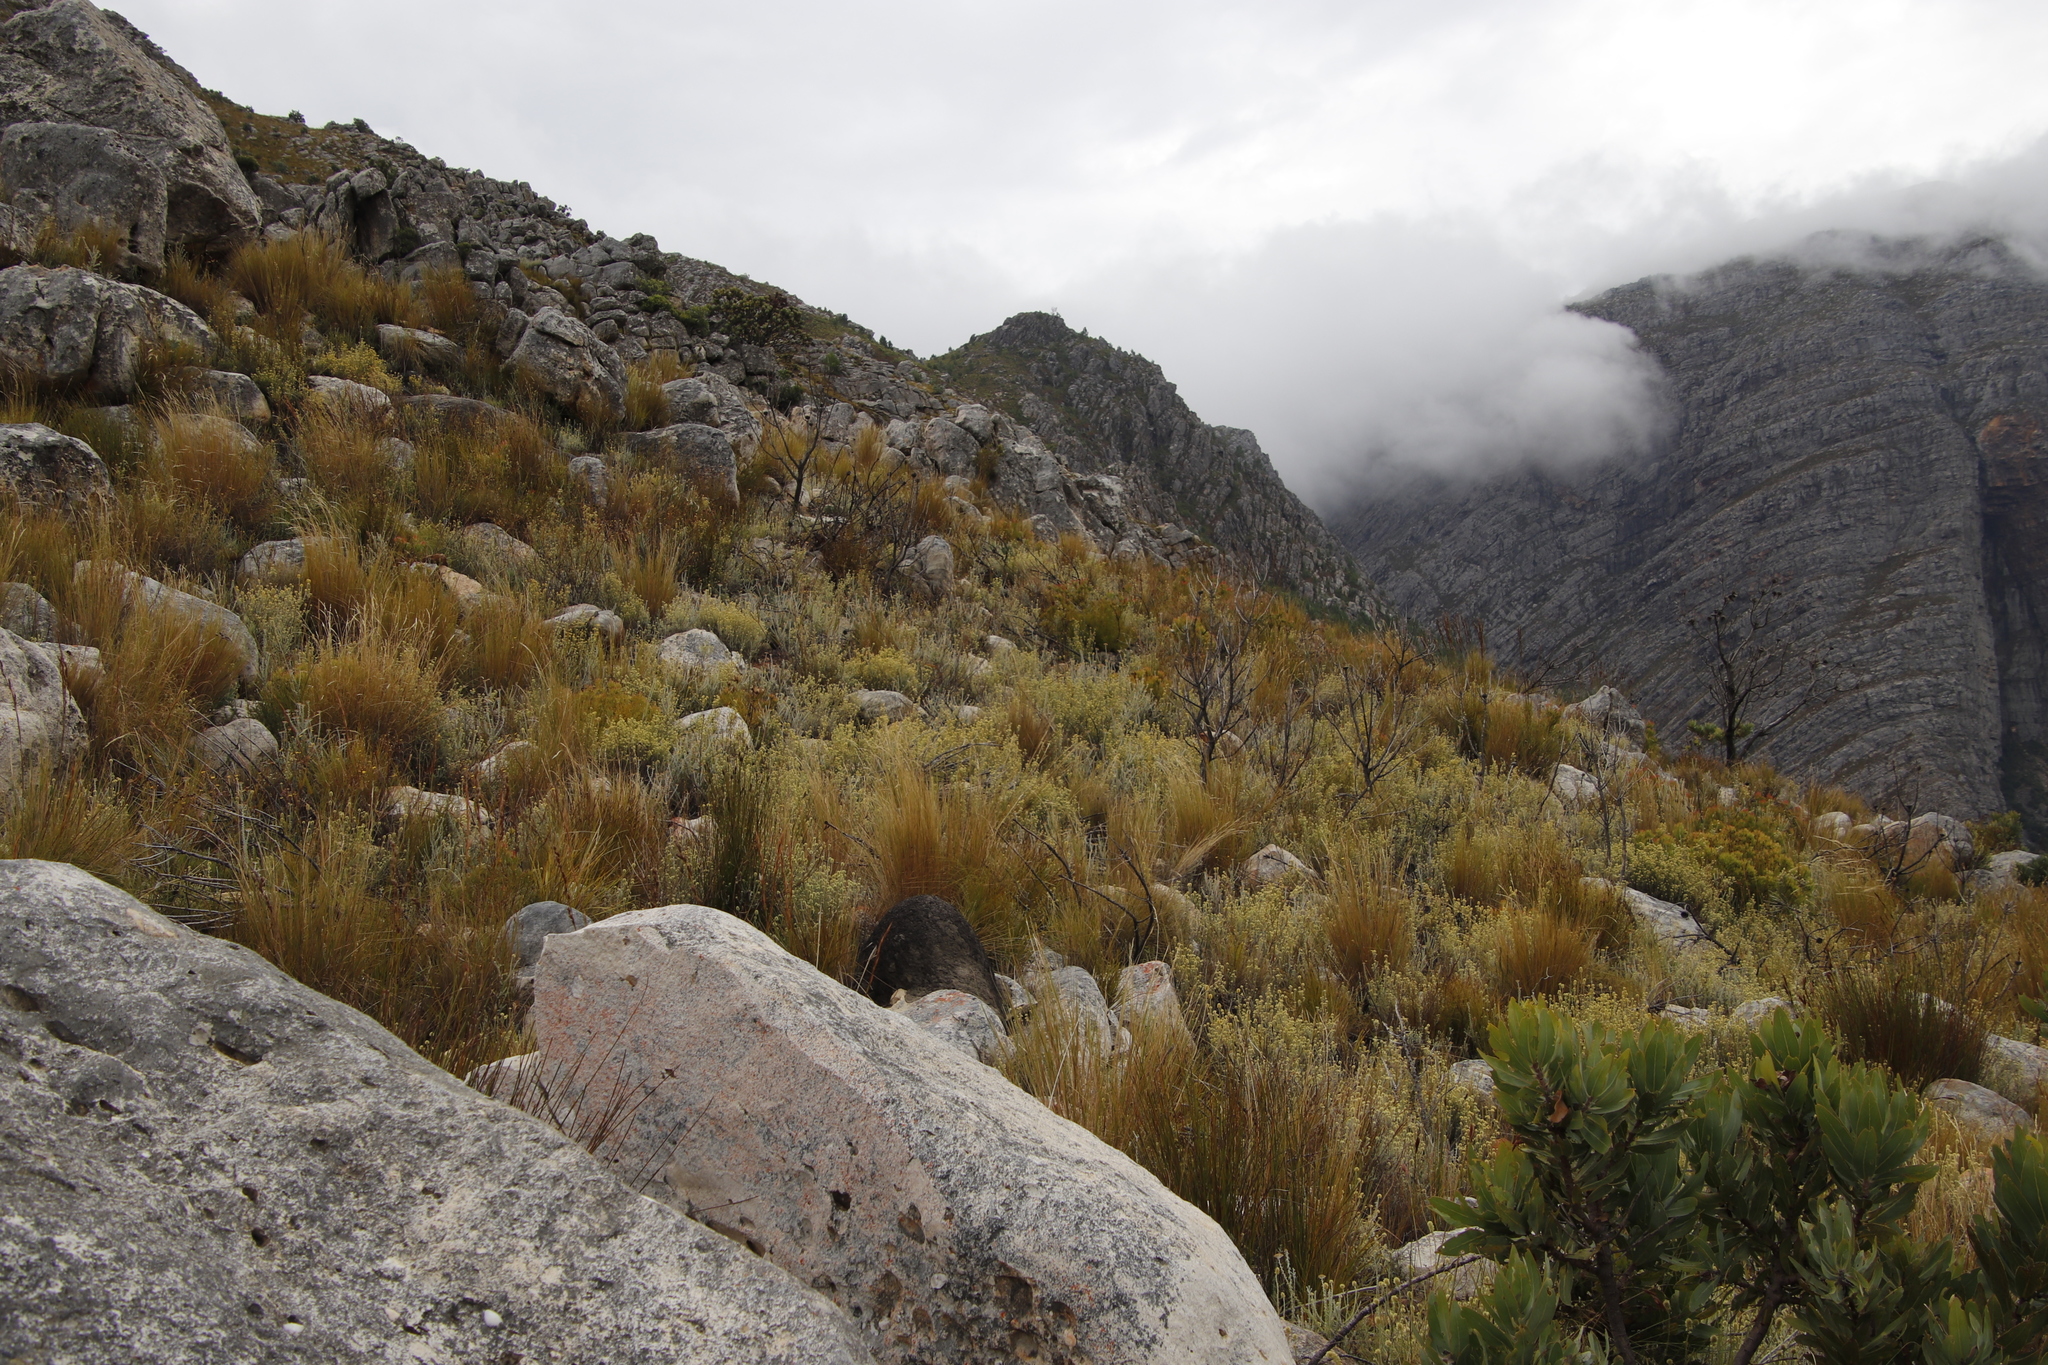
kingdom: Plantae
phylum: Tracheophyta
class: Magnoliopsida
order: Asterales
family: Asteraceae
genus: Seriphium
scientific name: Seriphium spirale
